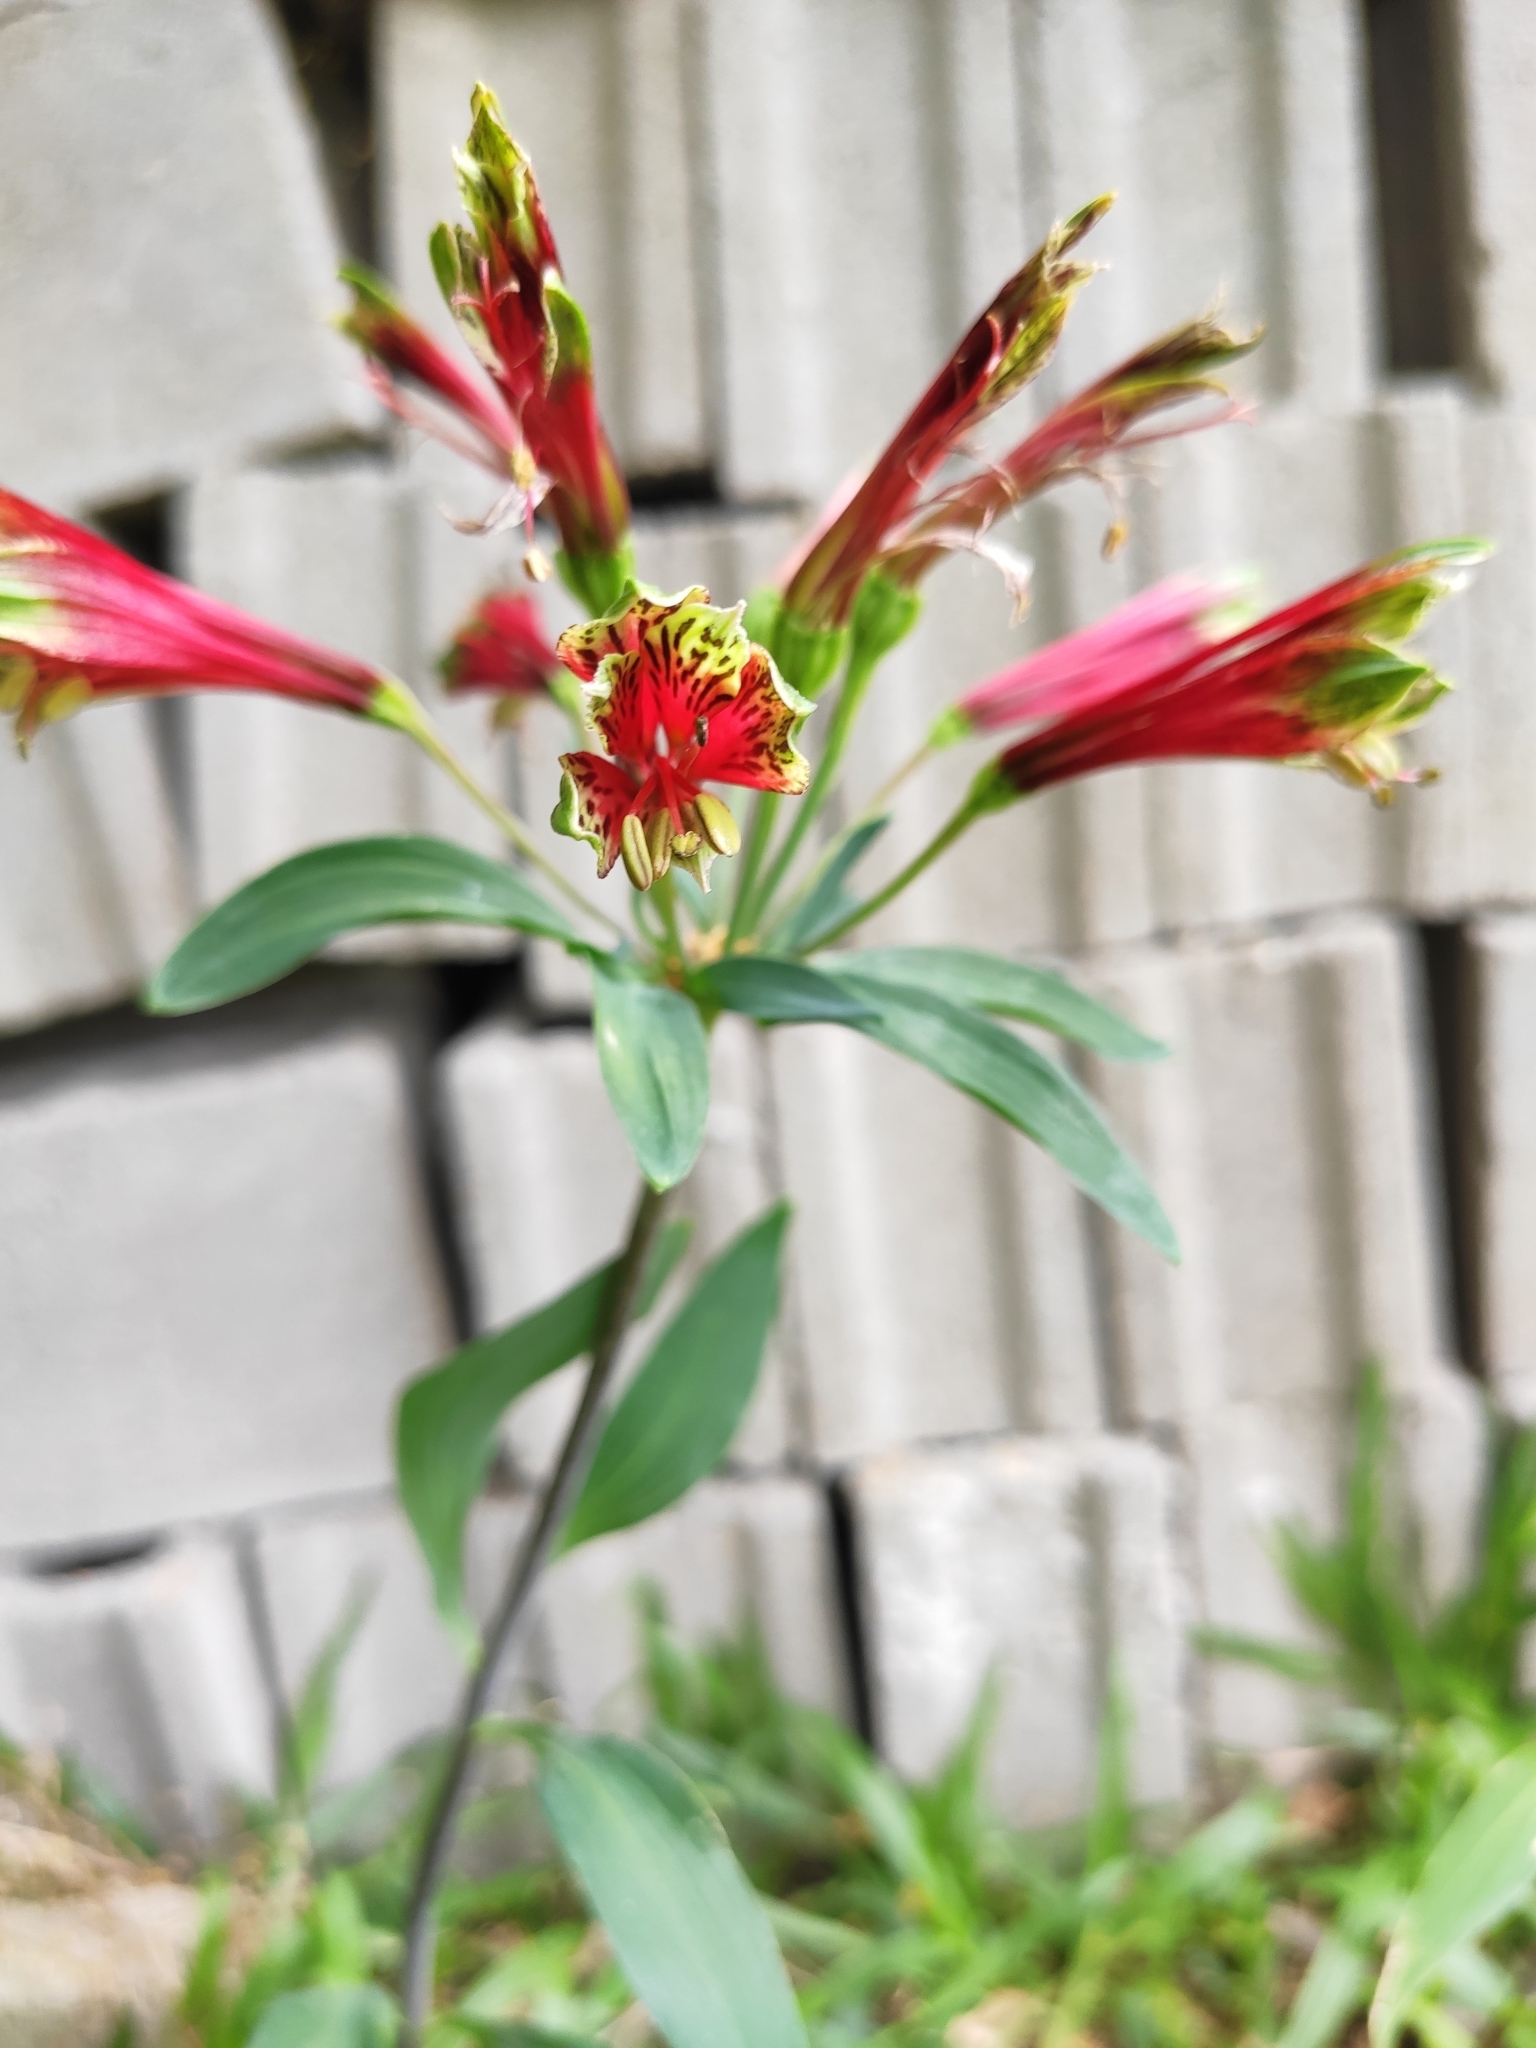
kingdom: Plantae
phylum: Tracheophyta
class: Liliopsida
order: Liliales
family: Alstroemeriaceae
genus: Alstroemeria
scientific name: Alstroemeria psittacina
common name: Peruvian-lily
